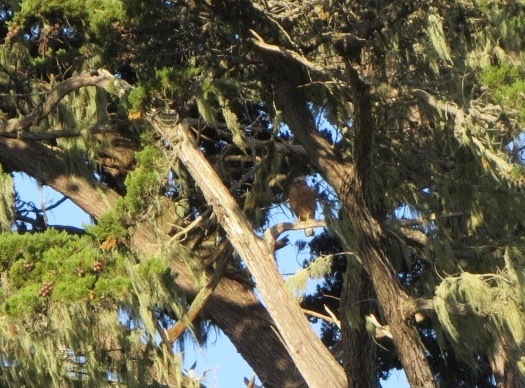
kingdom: Animalia
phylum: Chordata
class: Aves
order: Accipitriformes
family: Accipitridae
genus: Buteo
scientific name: Buteo lineatus
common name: Red-shouldered hawk
